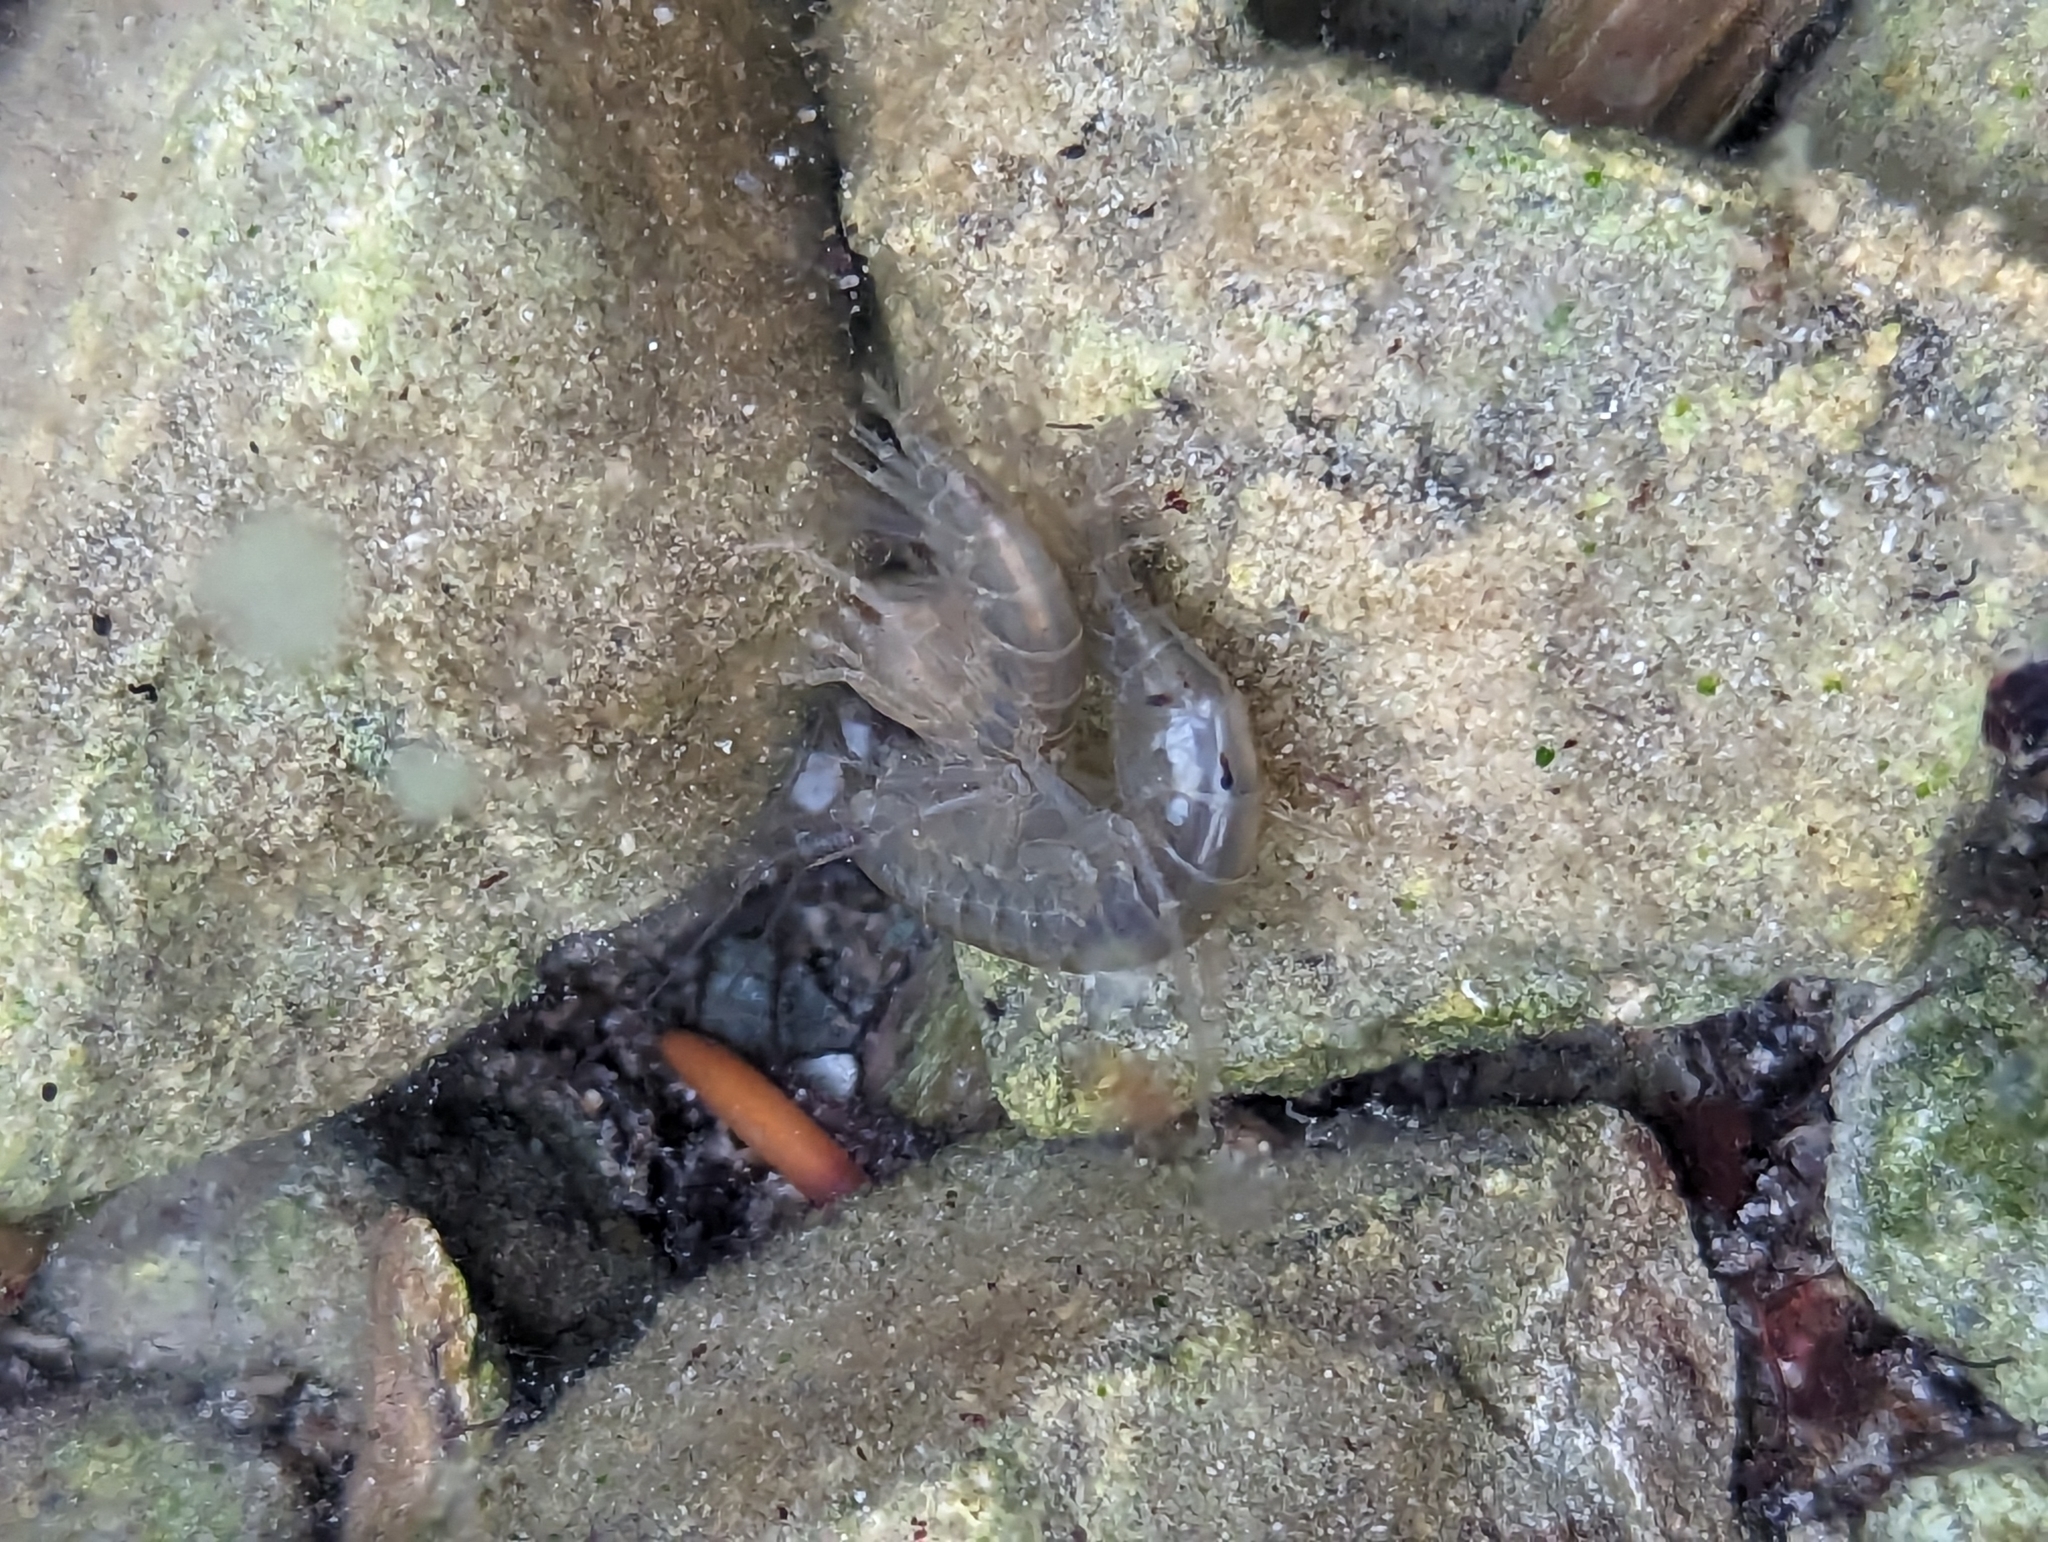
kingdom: Animalia
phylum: Arthropoda
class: Malacostraca
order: Amphipoda
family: Gammaridae
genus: Gammarus
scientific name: Gammarus lacustris
